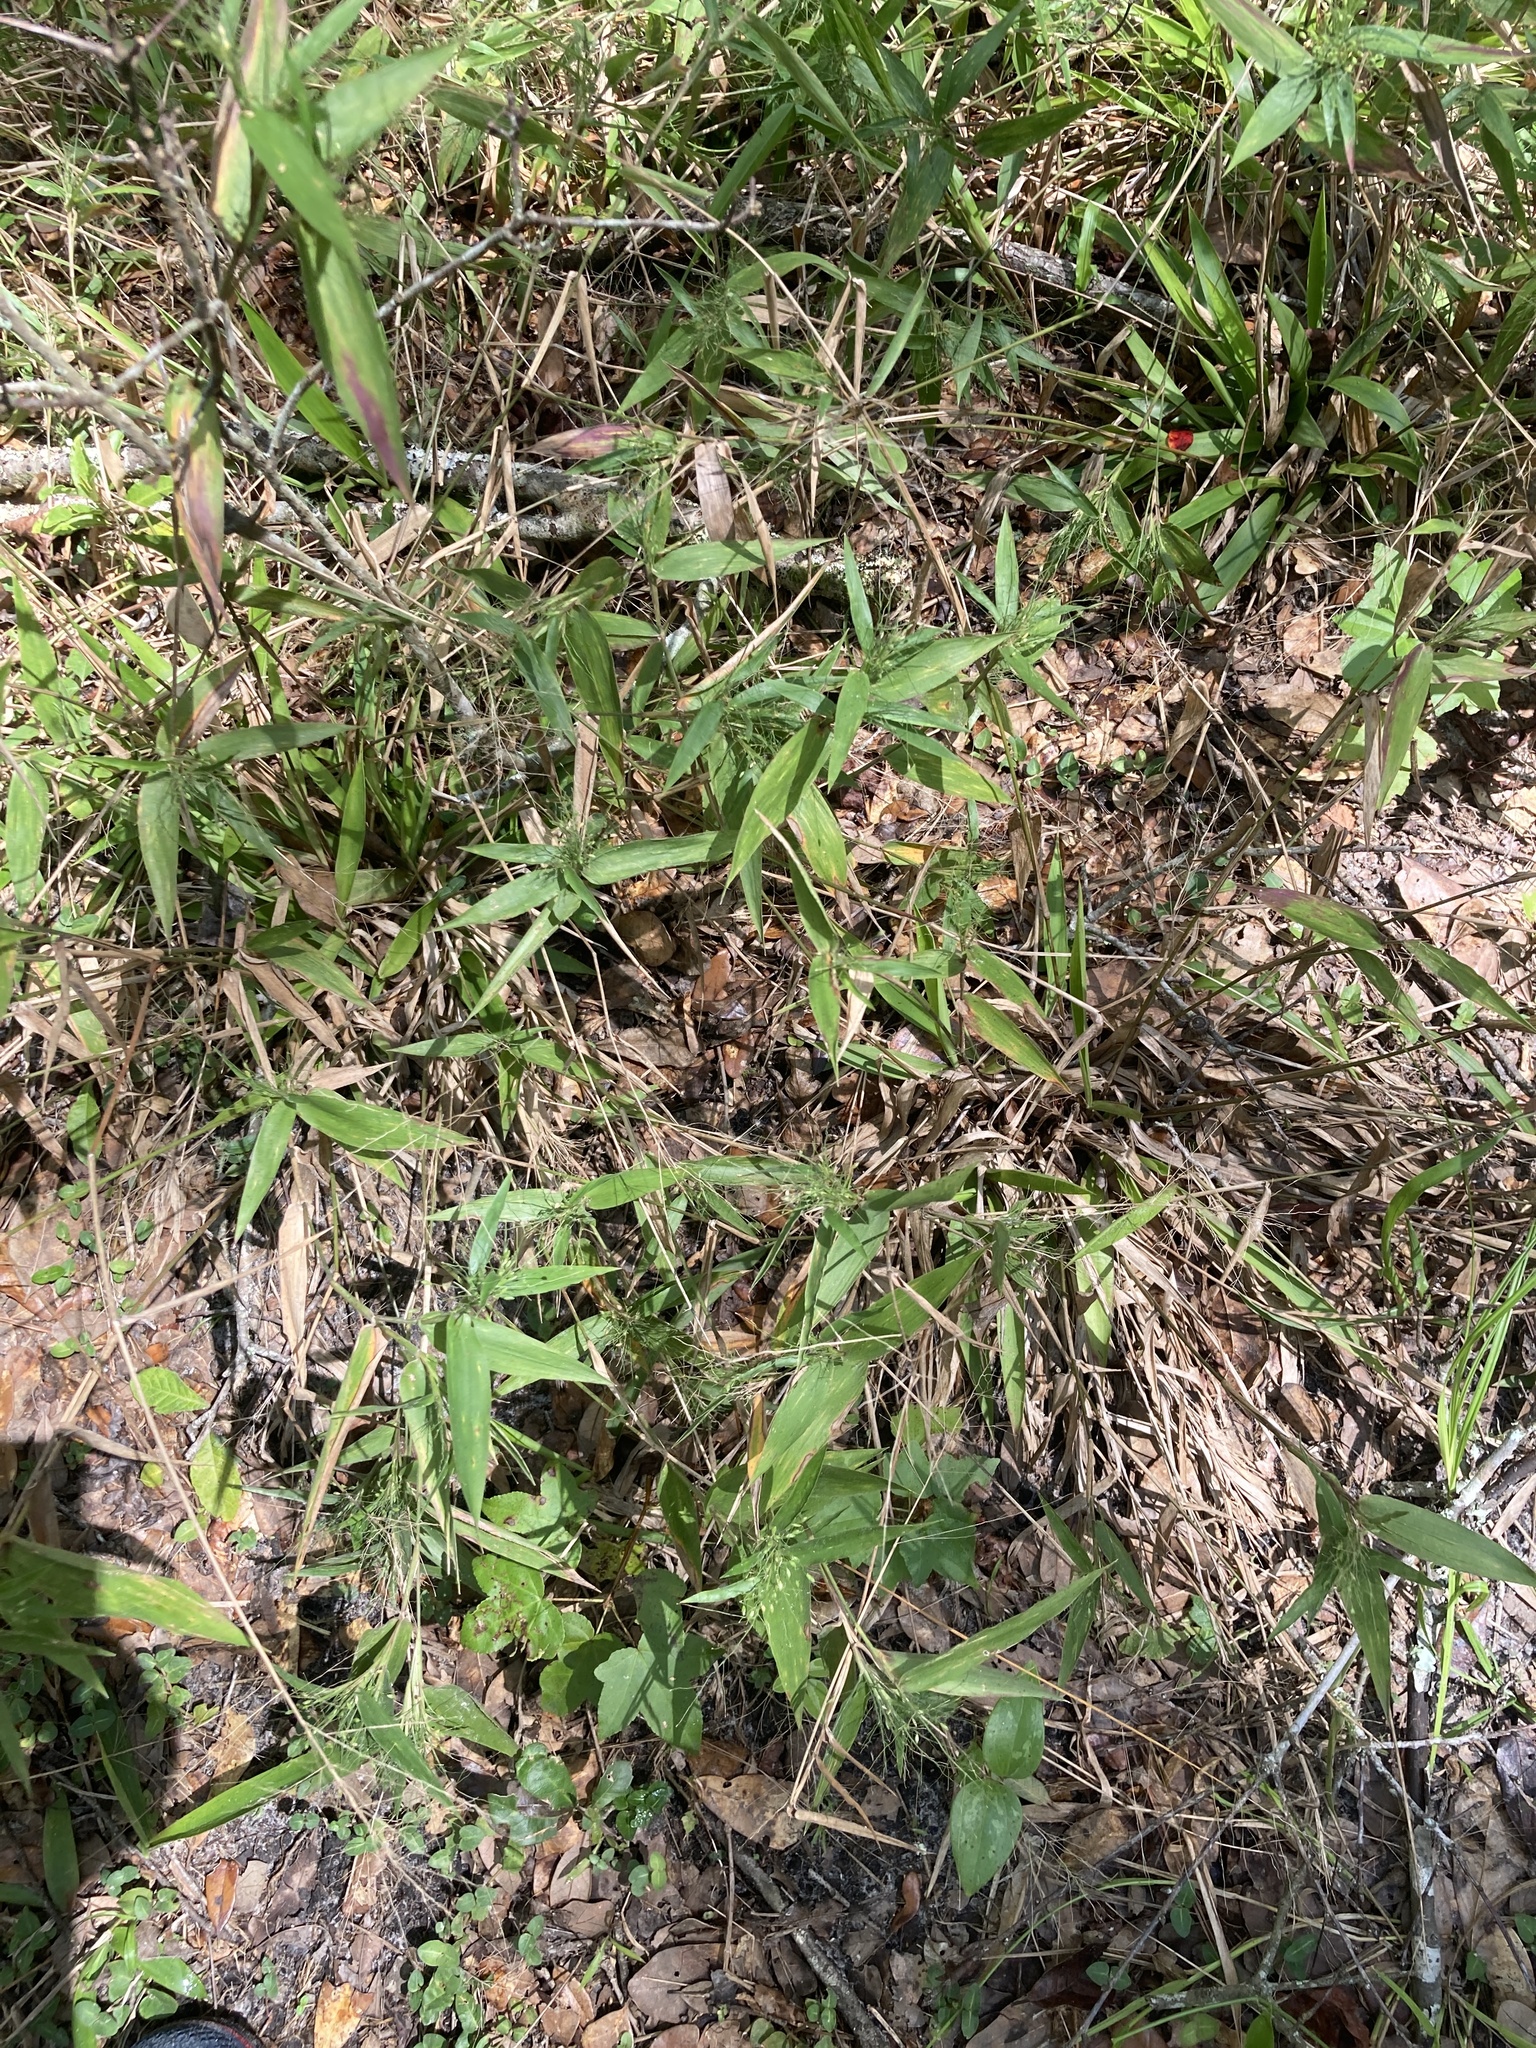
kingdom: Plantae
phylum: Tracheophyta
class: Liliopsida
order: Poales
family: Poaceae
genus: Dichanthelium
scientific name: Dichanthelium commutatum
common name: Variable witchgrass
